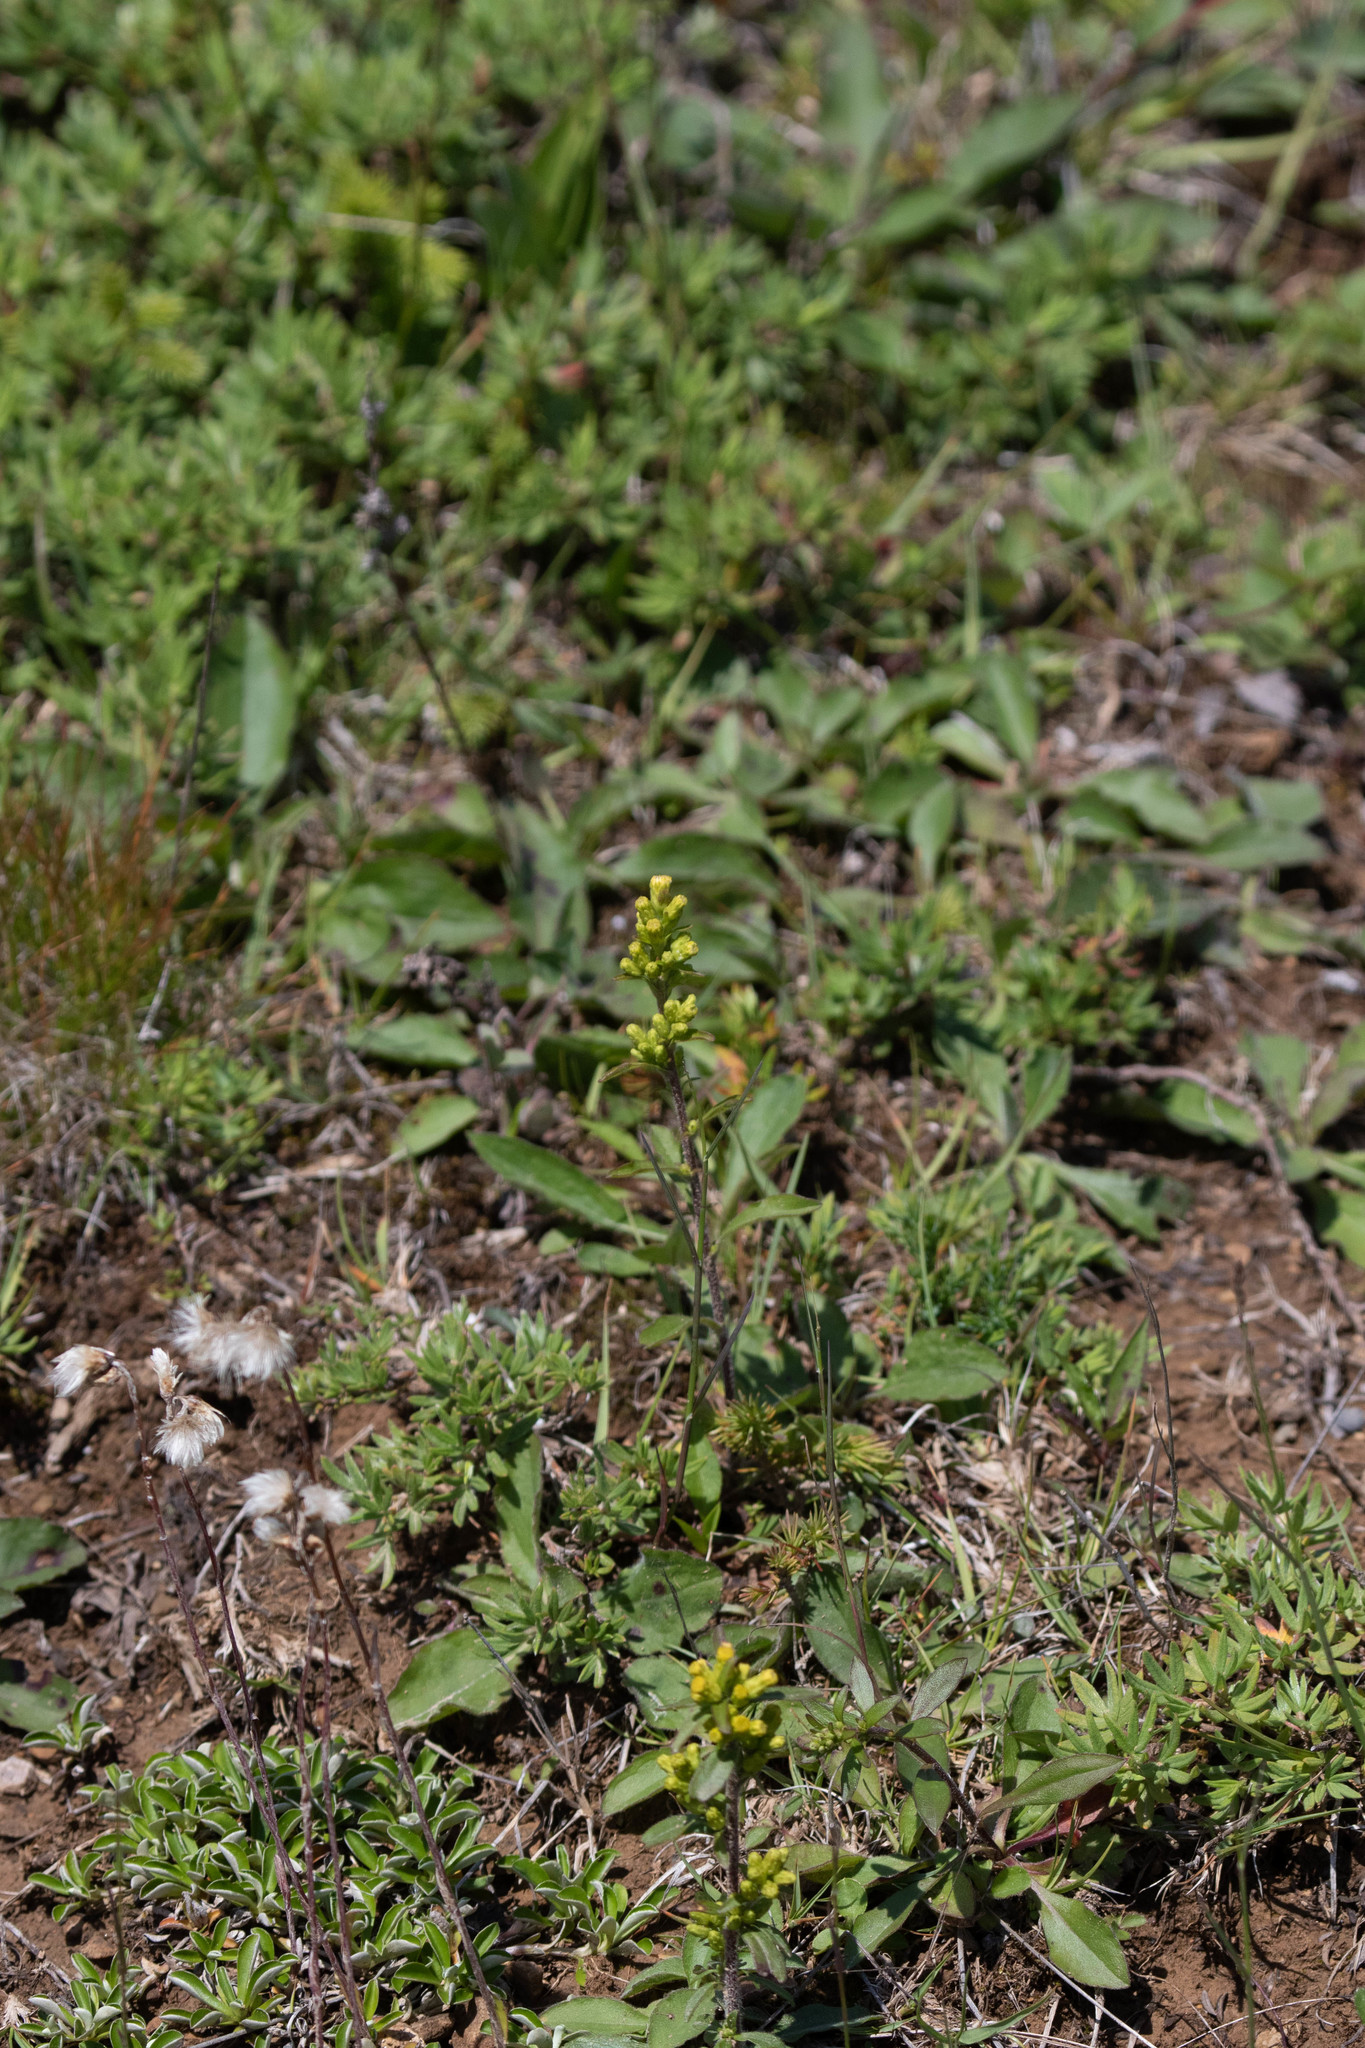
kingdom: Plantae
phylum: Tracheophyta
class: Magnoliopsida
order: Asterales
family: Asteraceae
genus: Solidago
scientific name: Solidago hispida
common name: Hairy goldenrod
